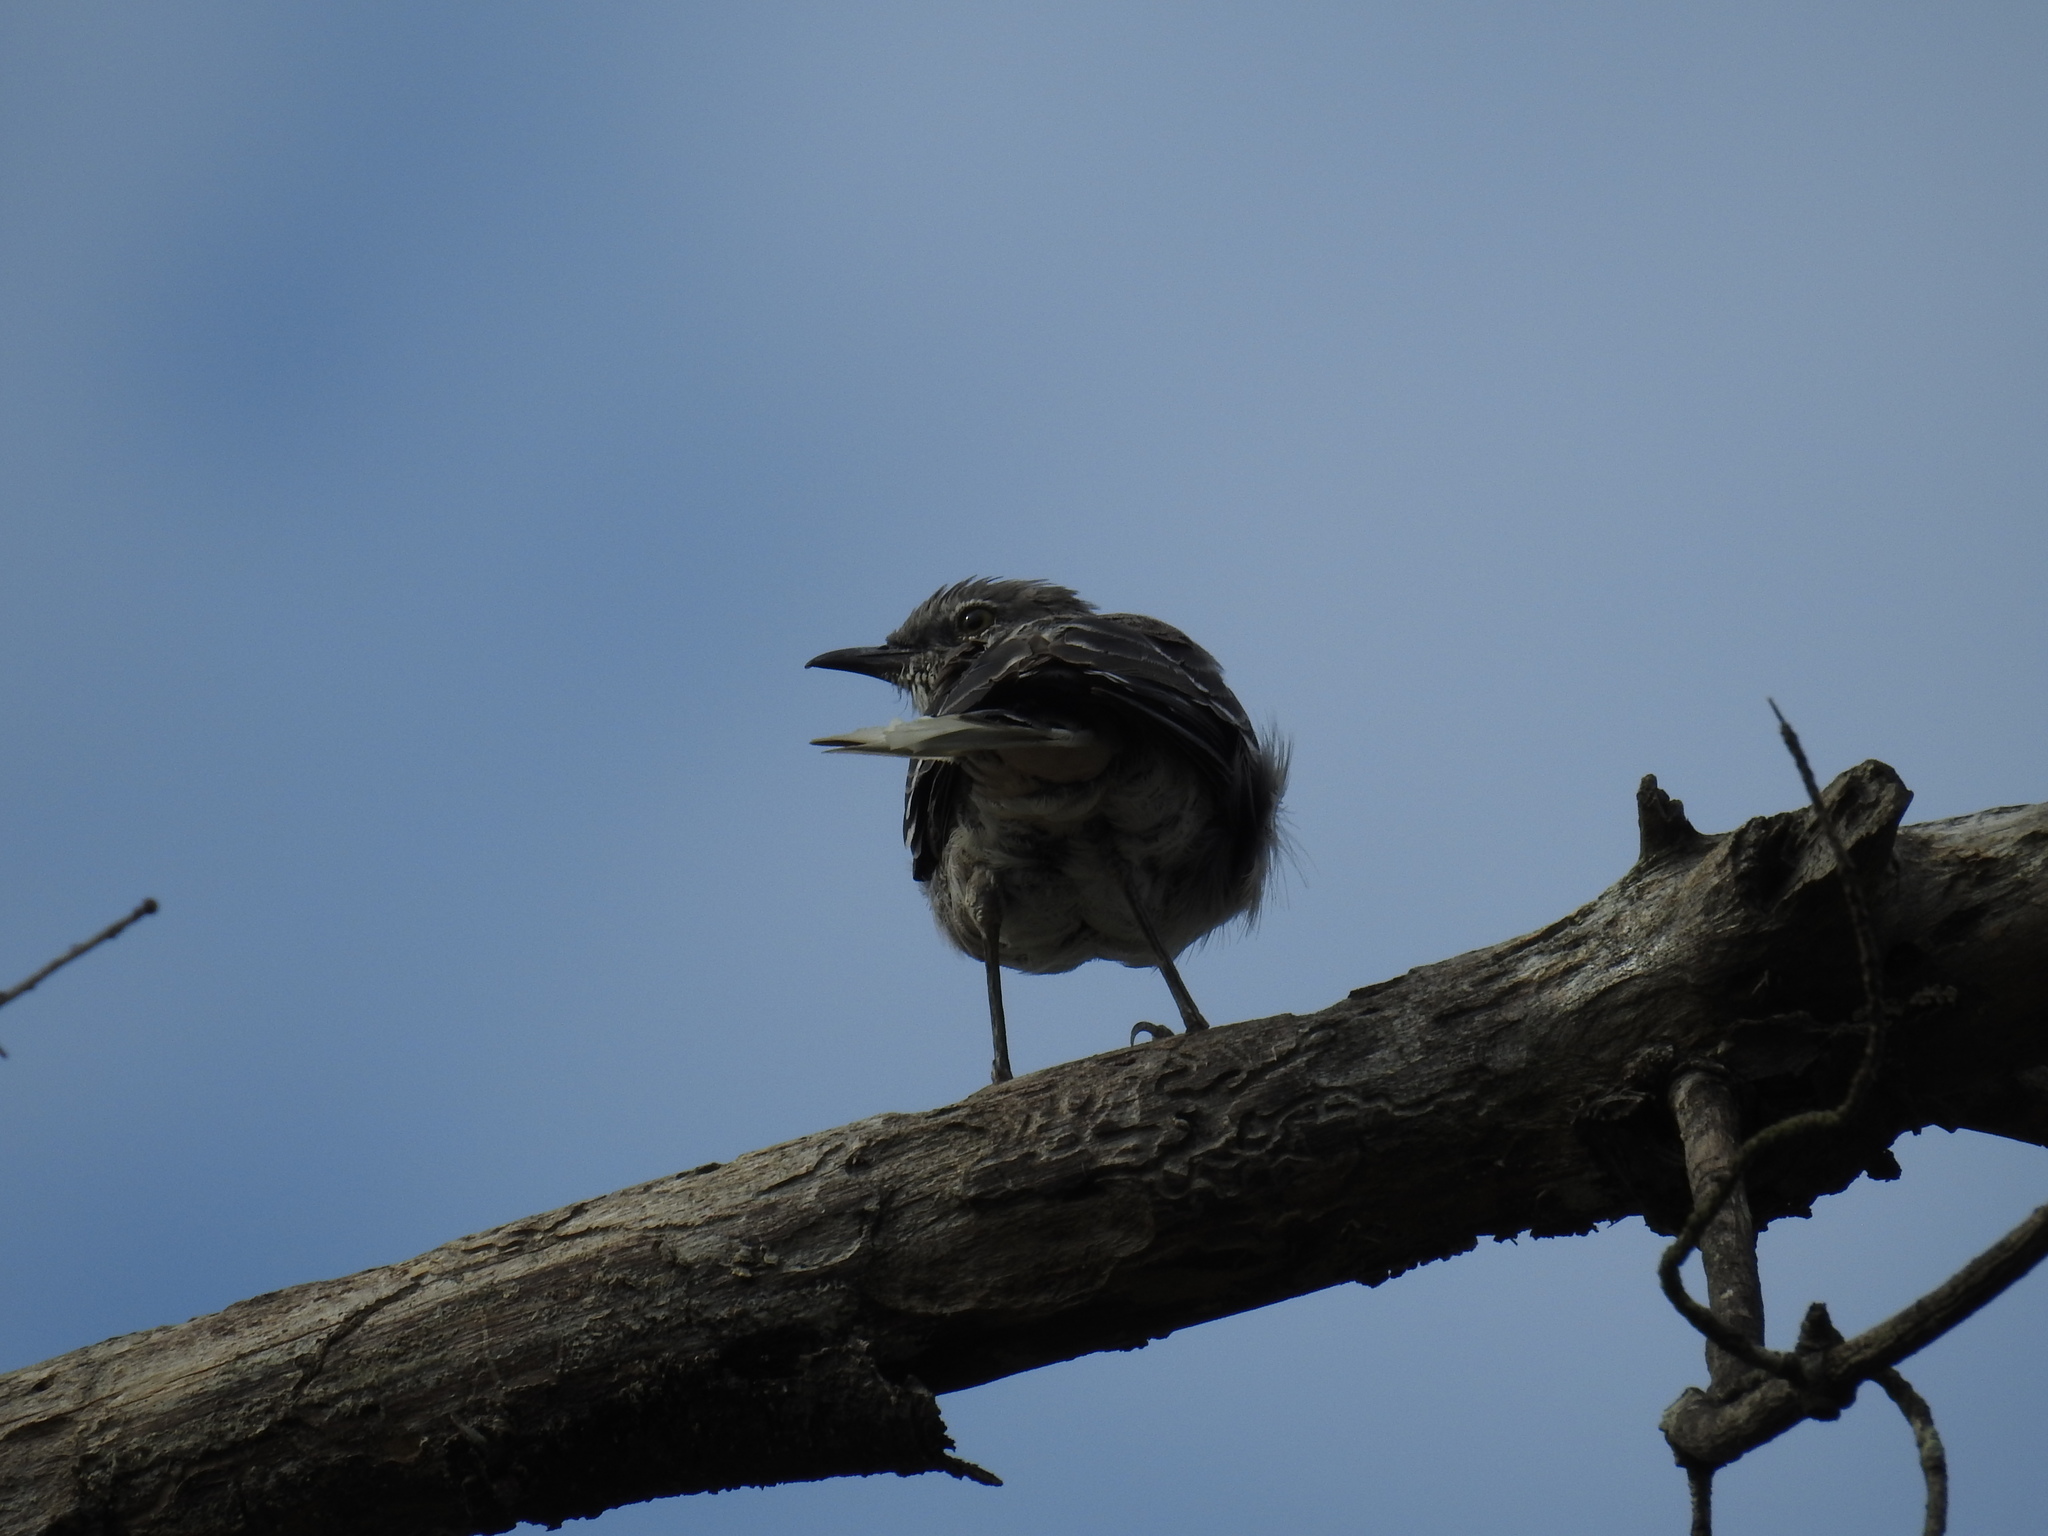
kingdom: Animalia
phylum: Chordata
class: Aves
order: Passeriformes
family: Mimidae
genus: Mimus
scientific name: Mimus polyglottos
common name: Northern mockingbird
